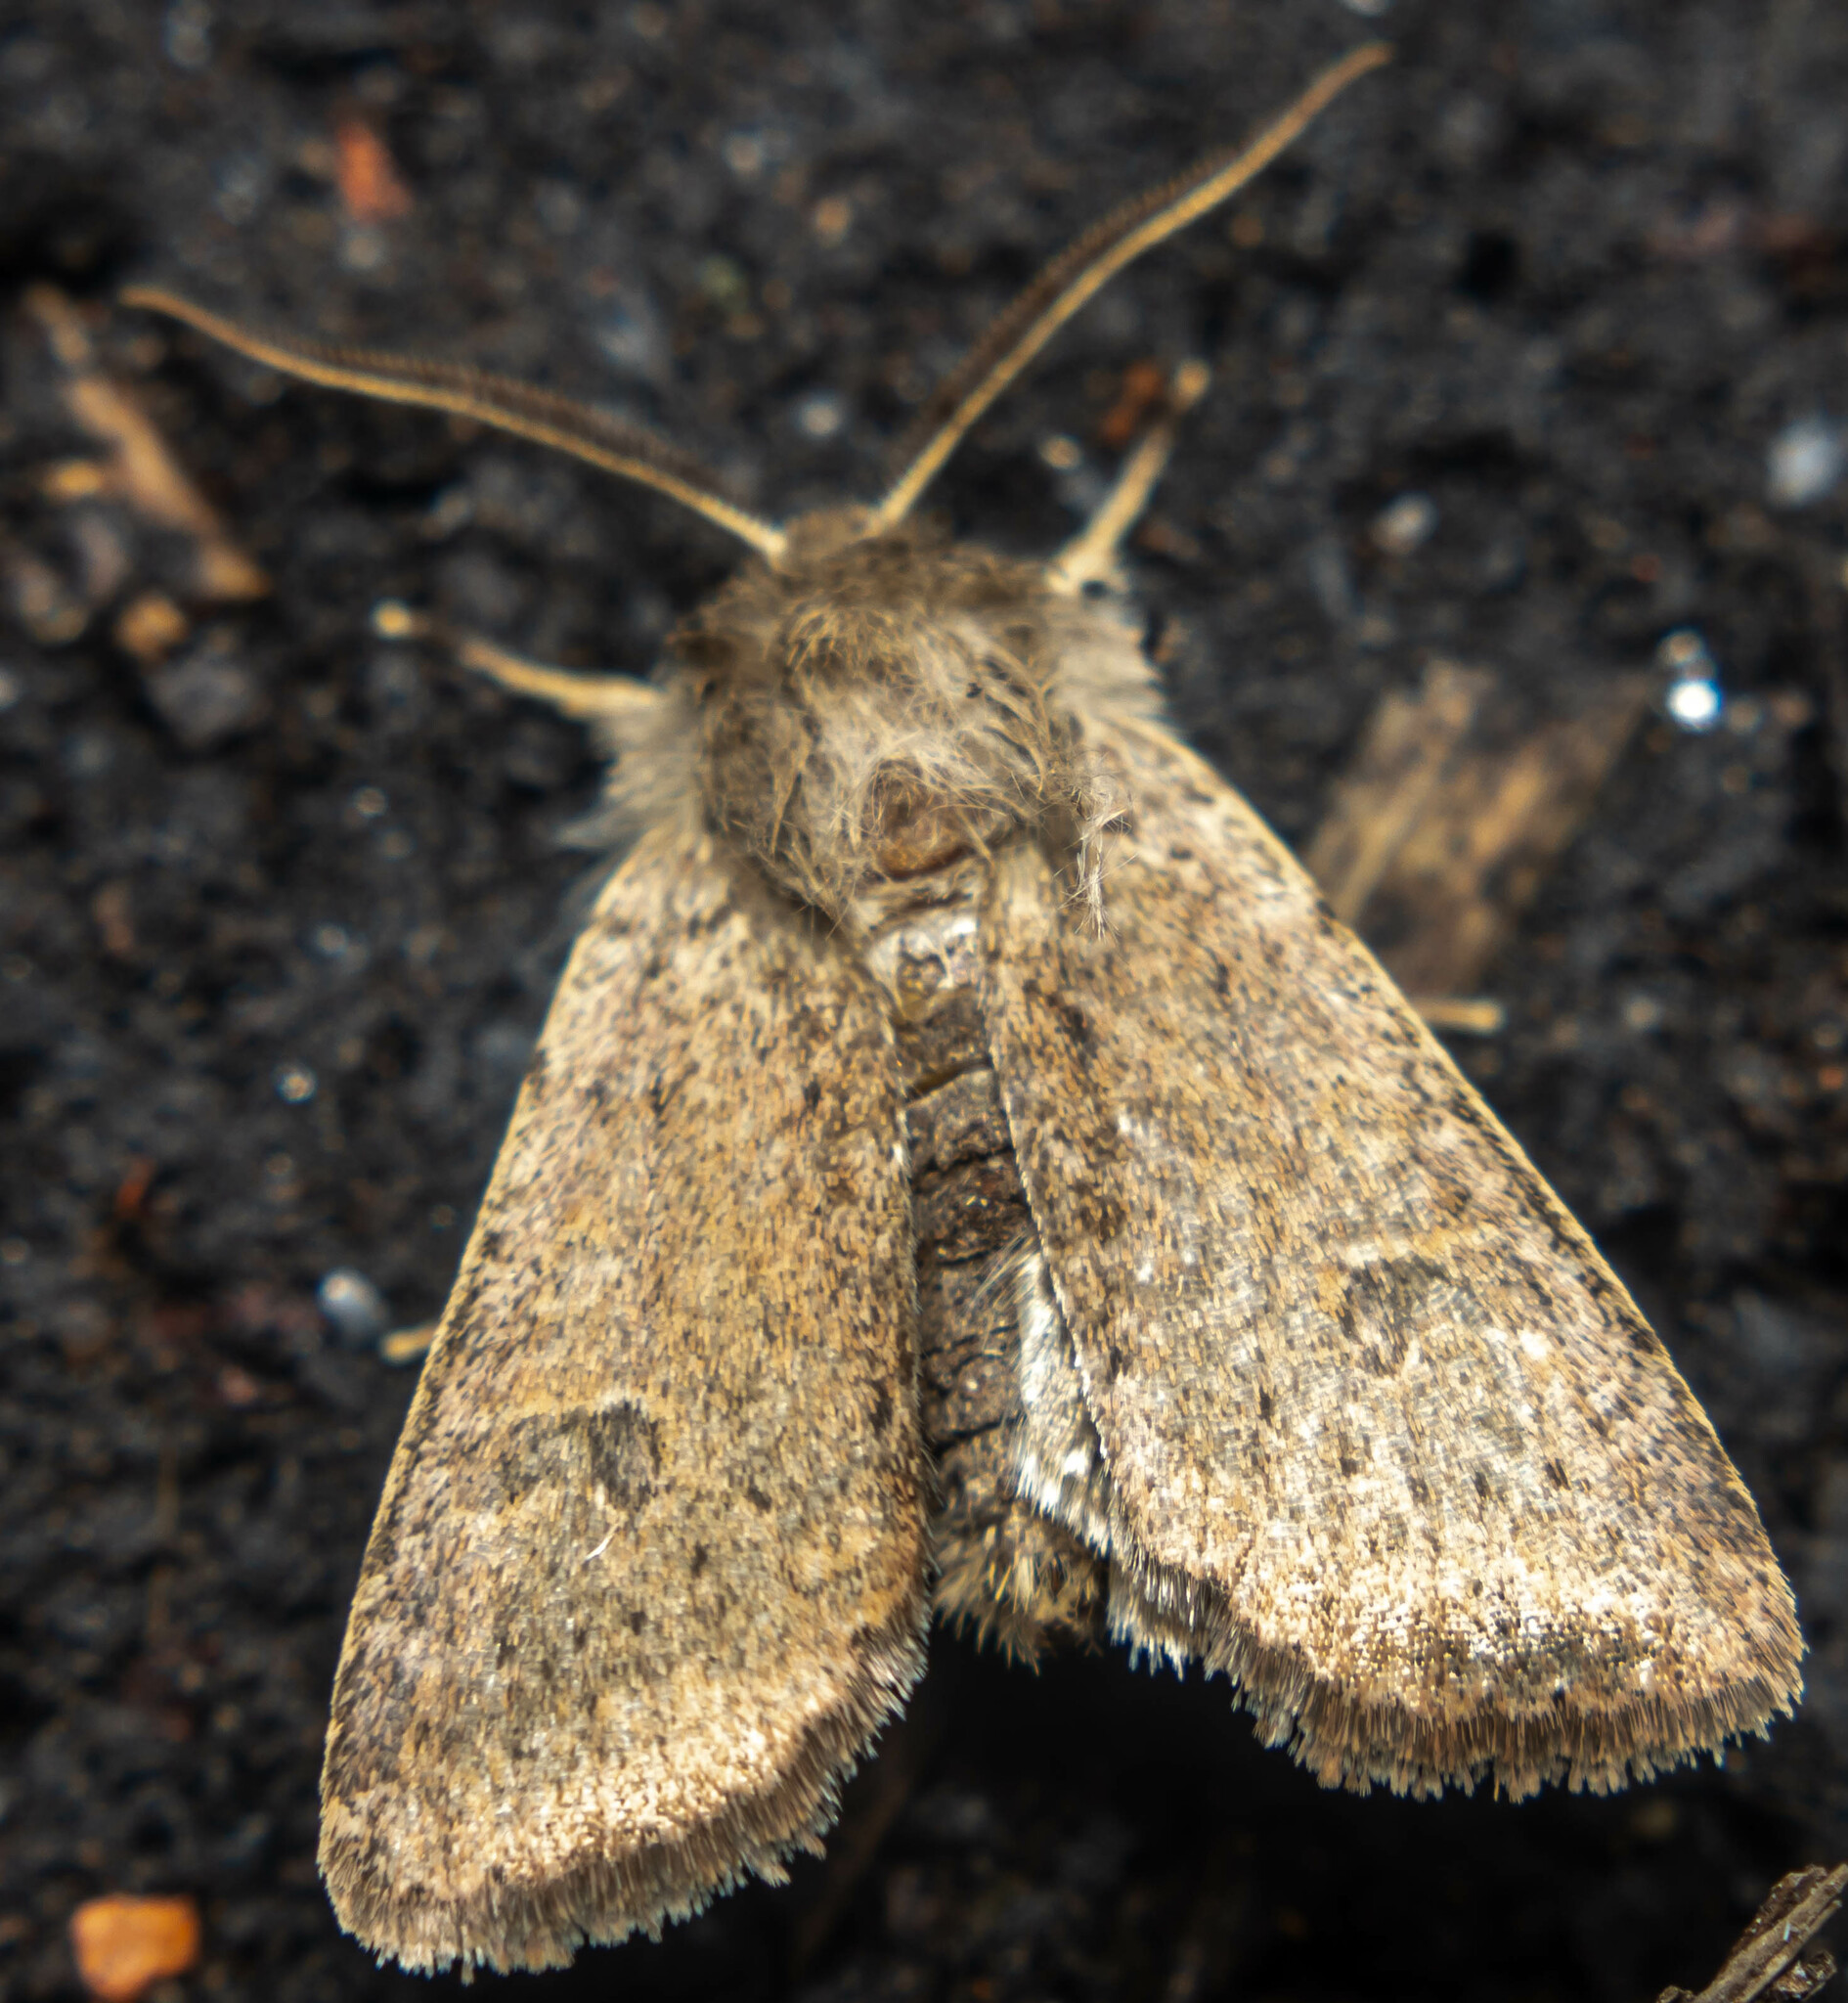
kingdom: Animalia
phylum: Arthropoda
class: Insecta
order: Lepidoptera
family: Noctuidae
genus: Orthosia
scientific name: Orthosia cruda
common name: Small quaker
